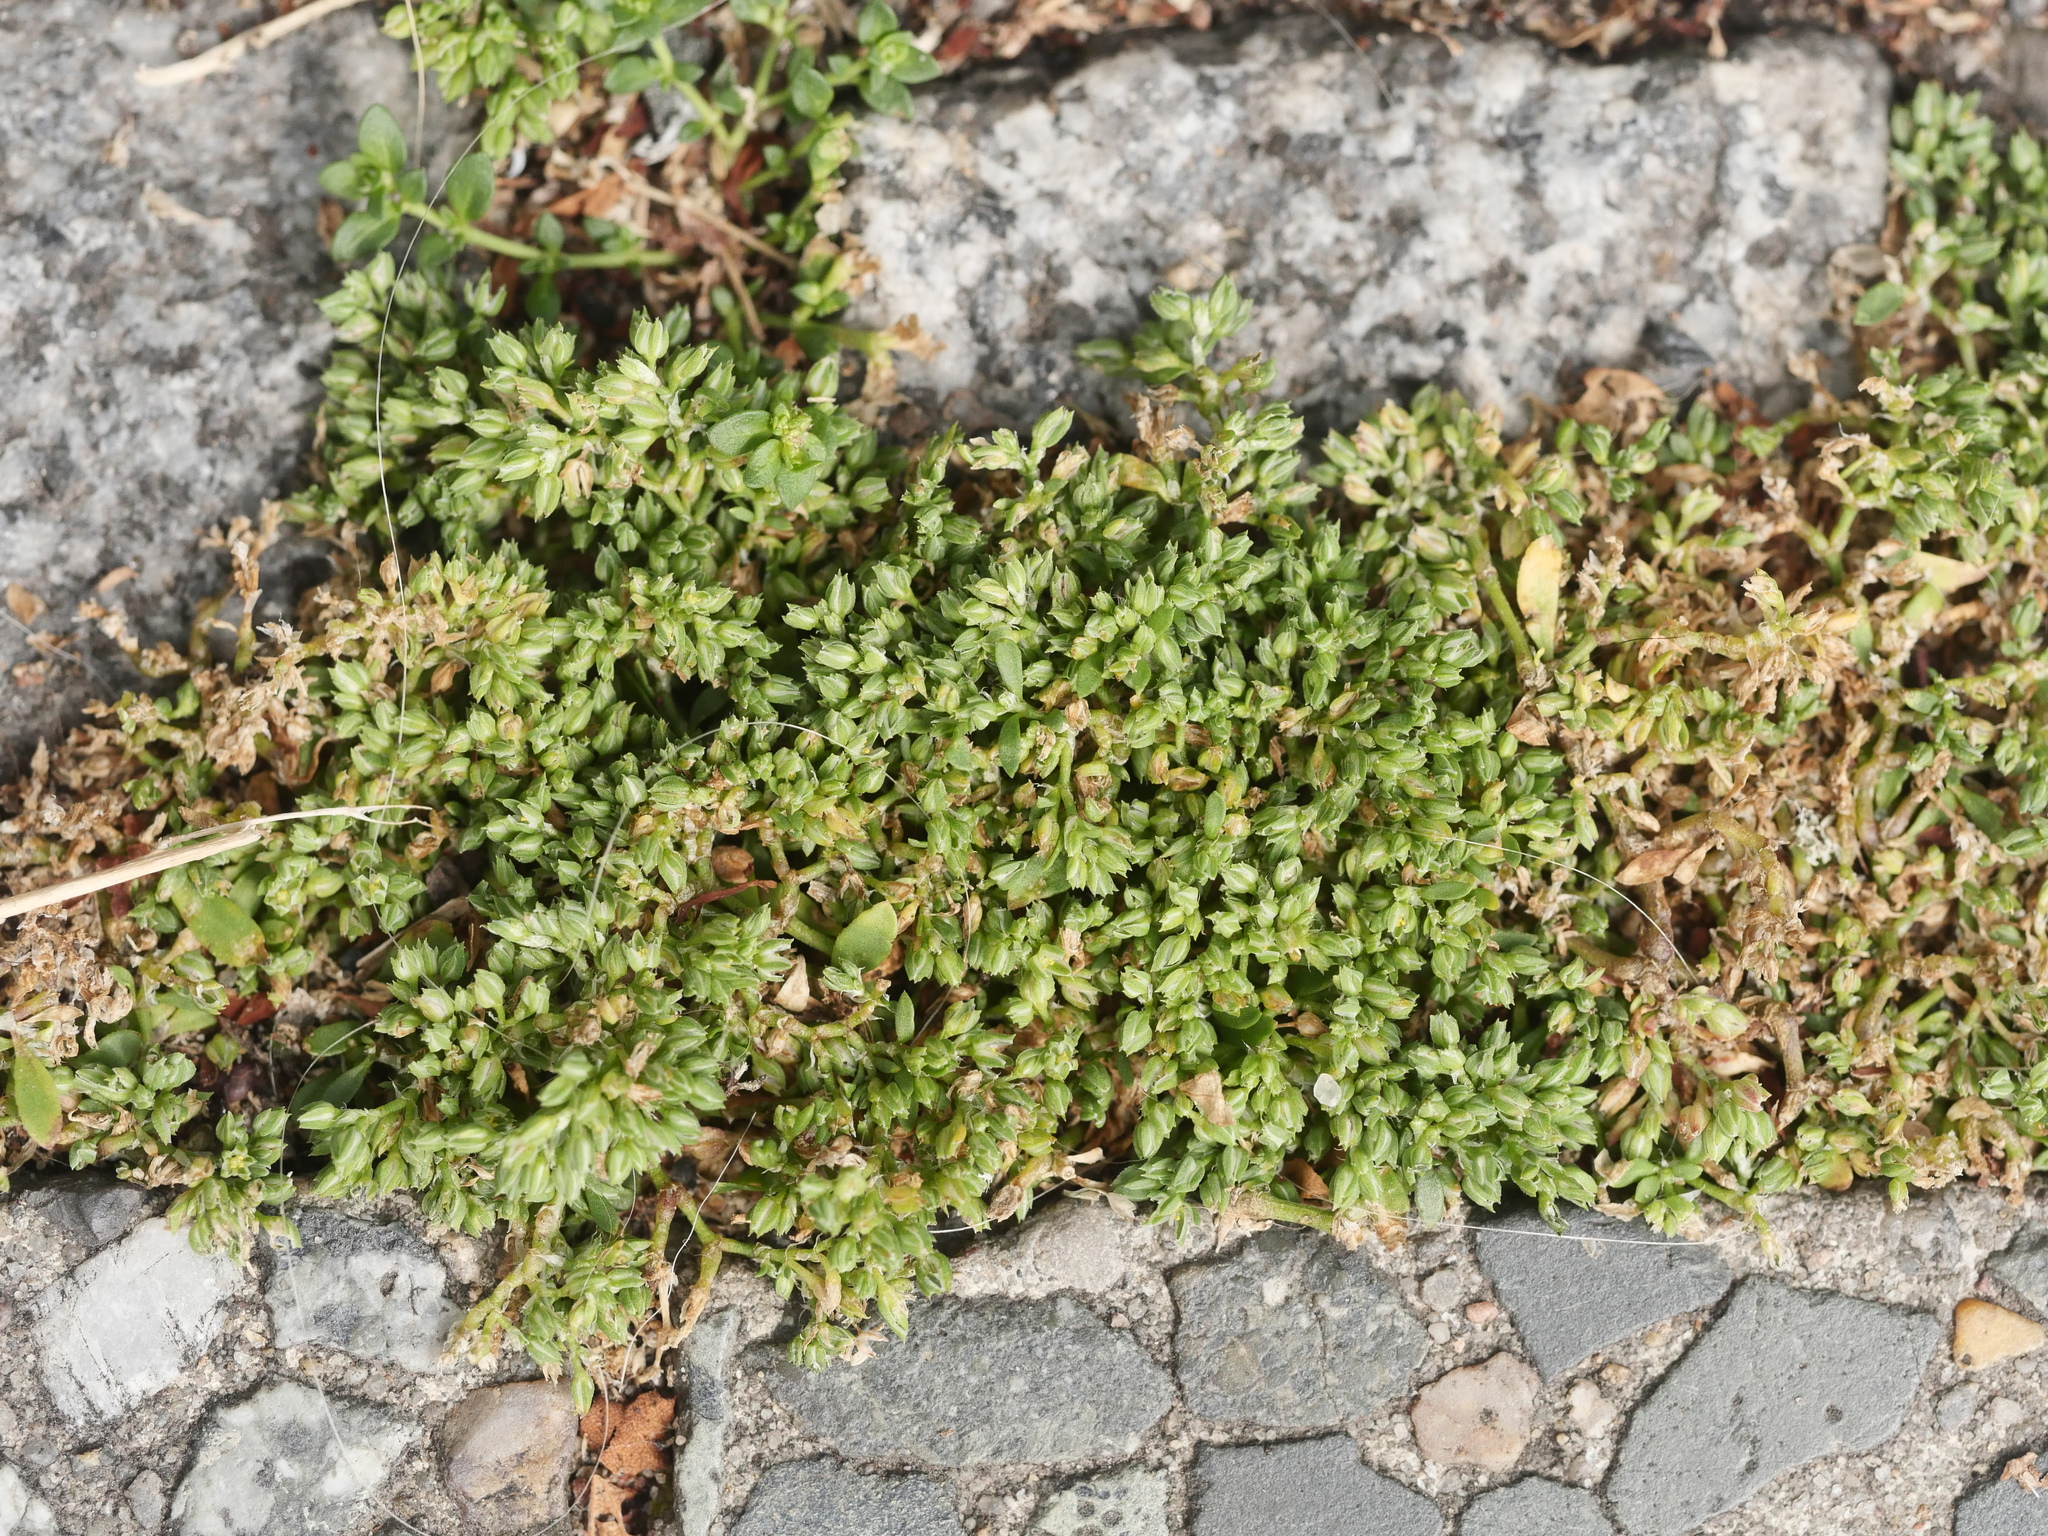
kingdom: Plantae
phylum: Tracheophyta
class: Magnoliopsida
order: Caryophyllales
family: Caryophyllaceae
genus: Polycarpon
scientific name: Polycarpon tetraphyllum
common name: Four-leaved all-seed
